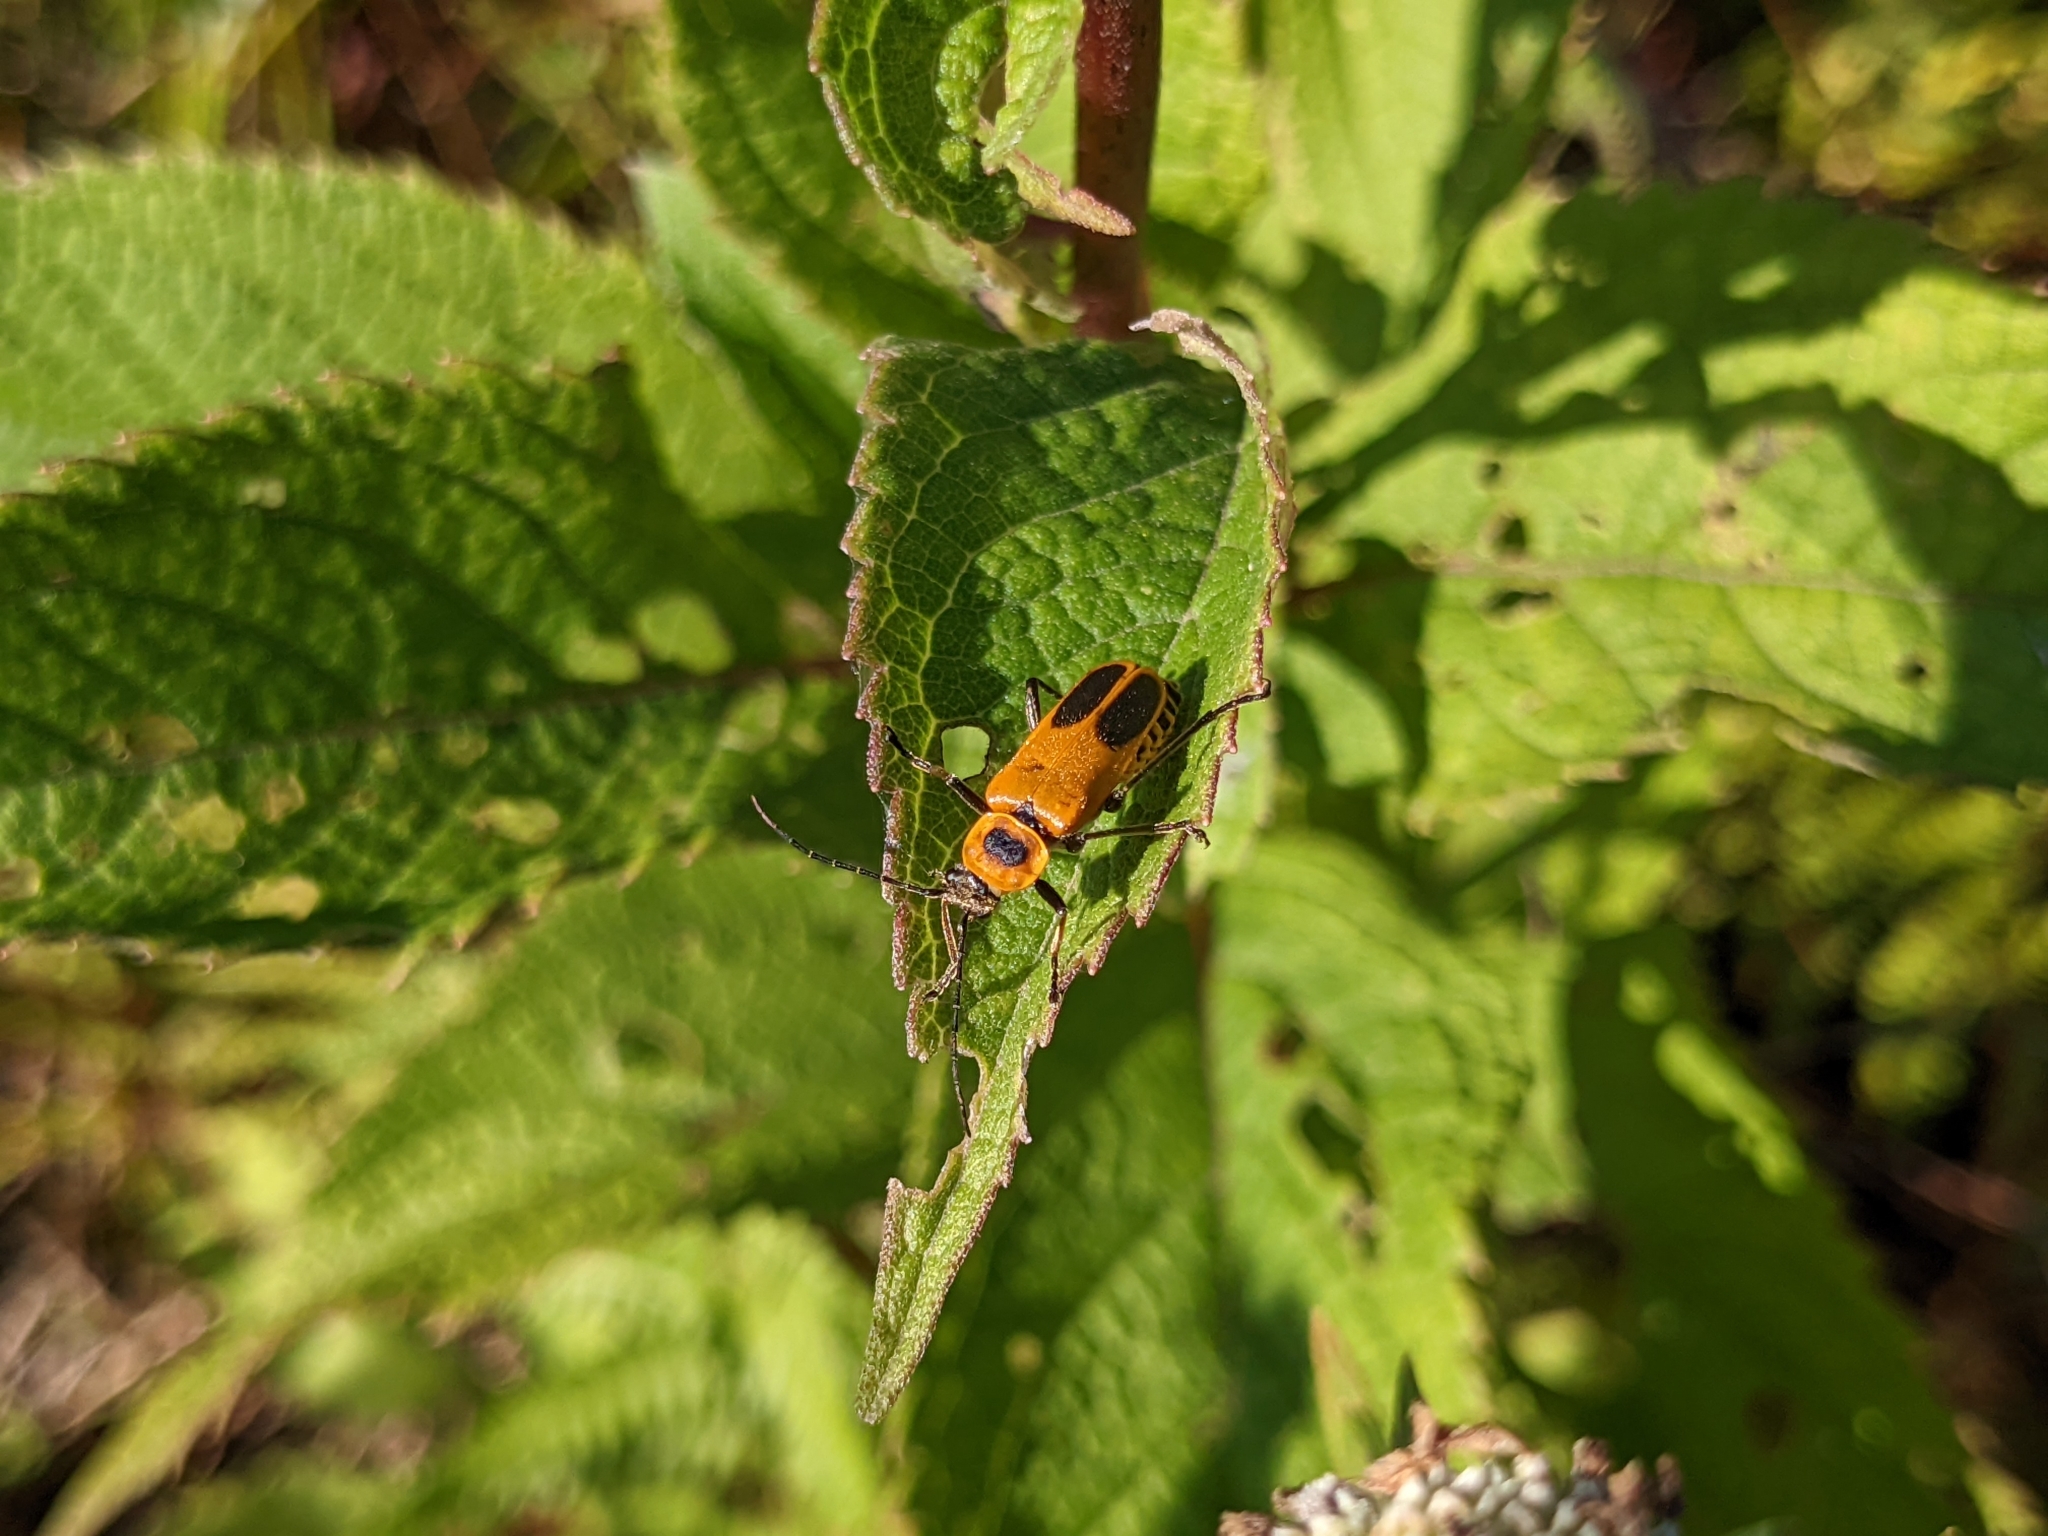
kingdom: Animalia
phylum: Arthropoda
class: Insecta
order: Coleoptera
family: Cantharidae
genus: Chauliognathus
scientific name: Chauliognathus pensylvanicus
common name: Goldenrod soldier beetle
